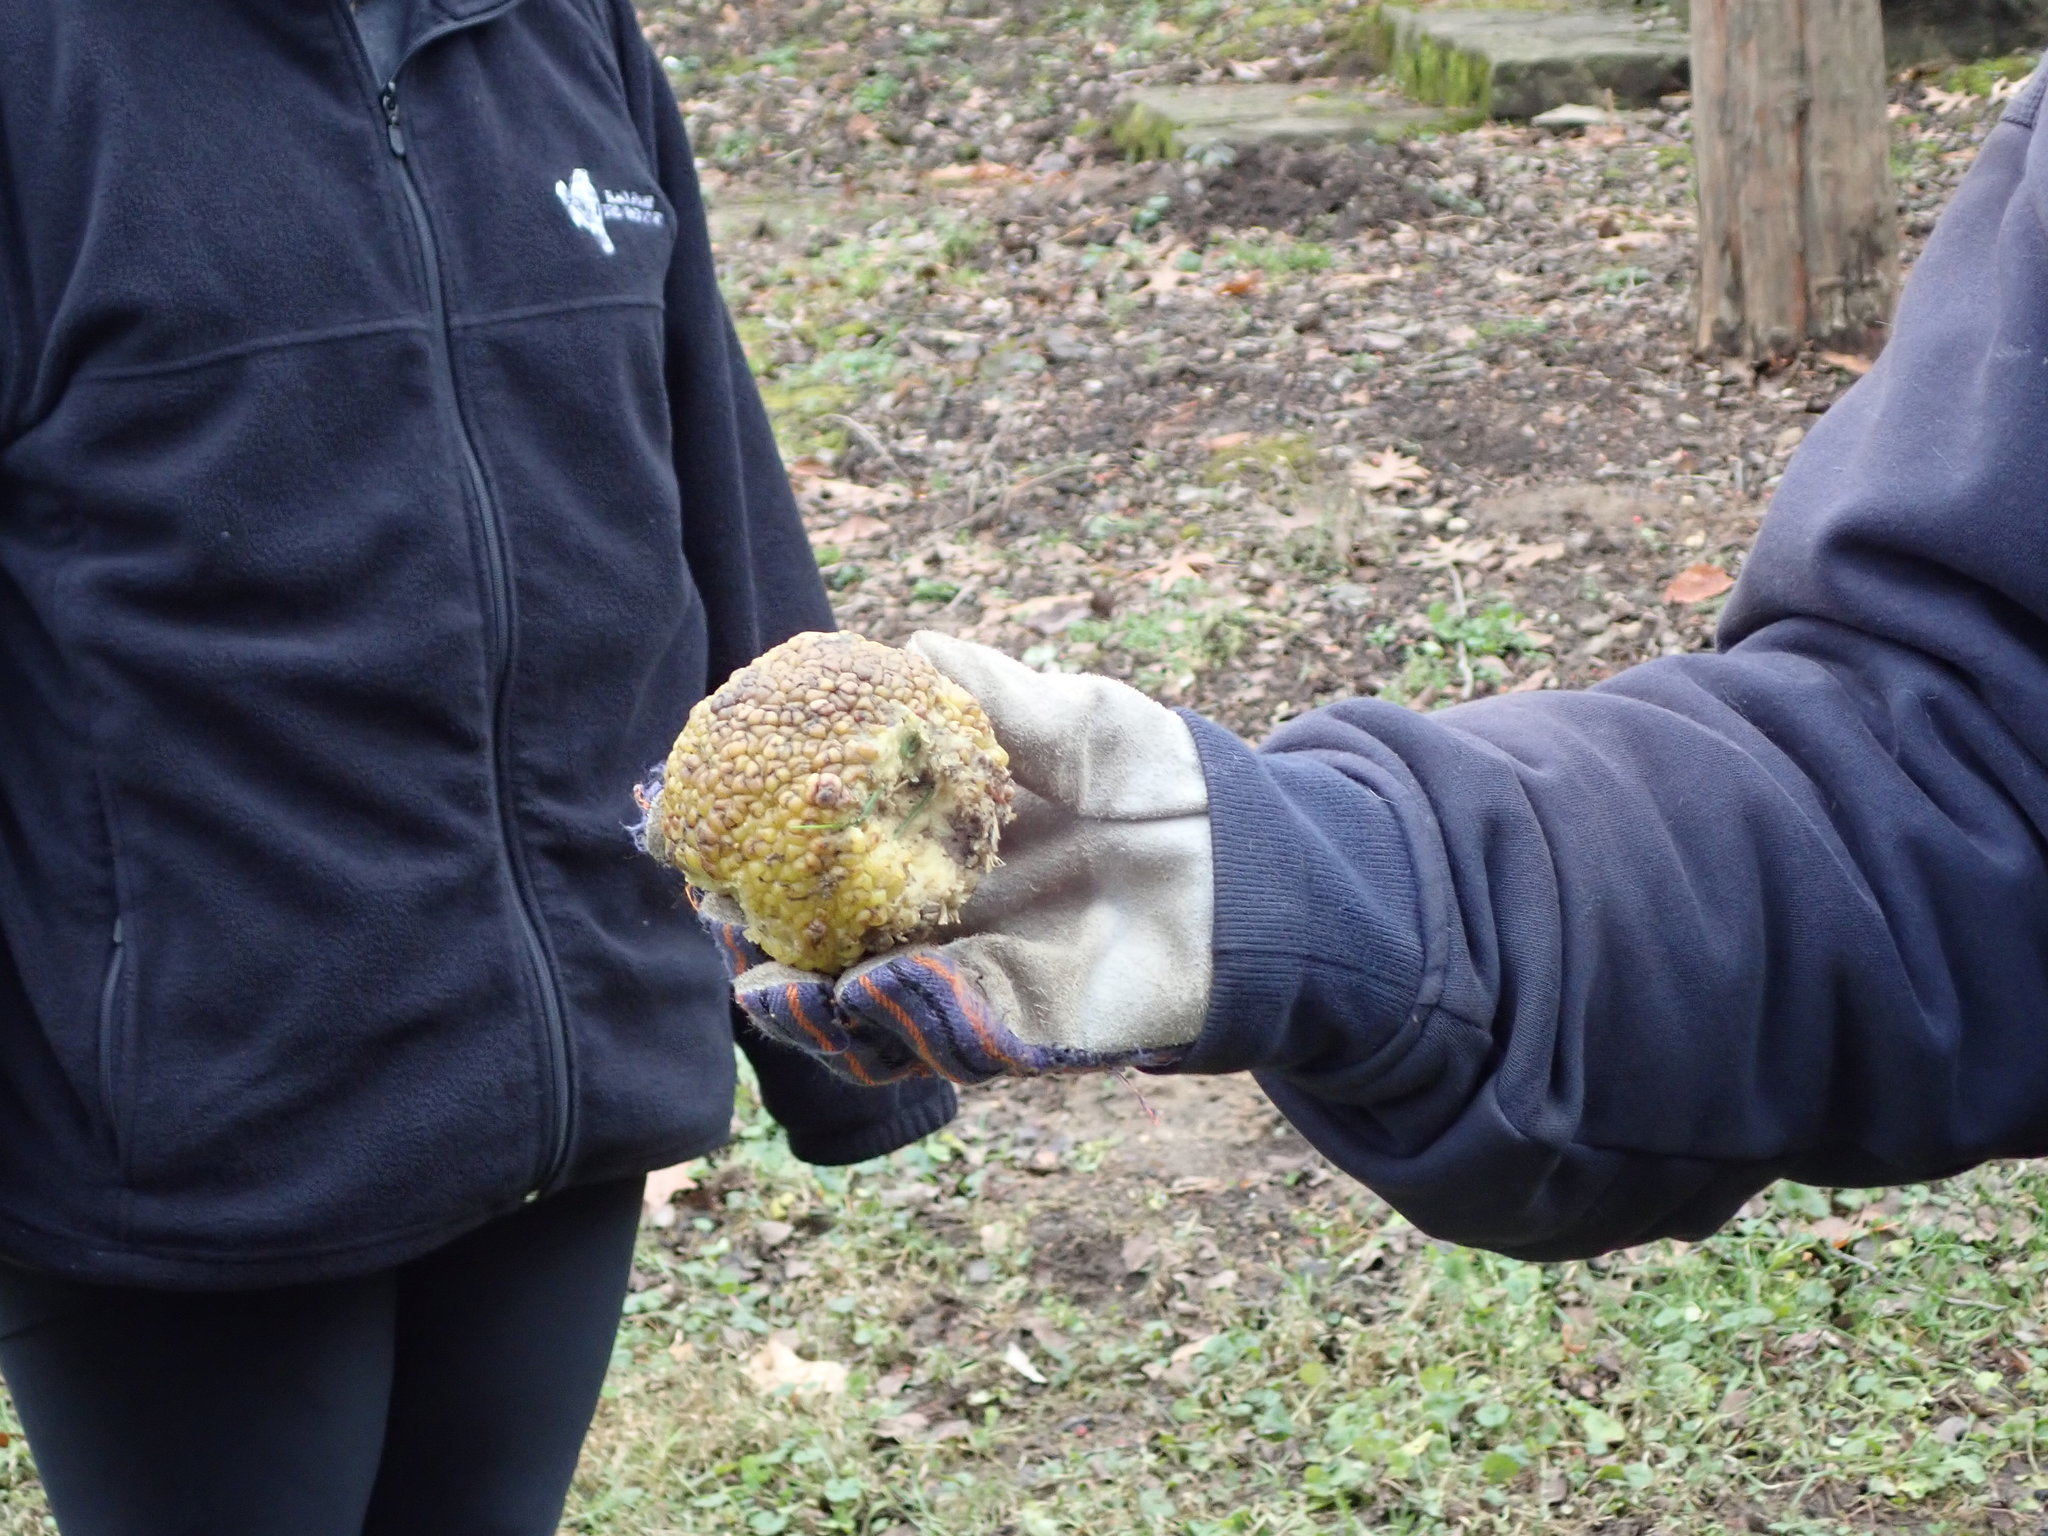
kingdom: Plantae
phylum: Tracheophyta
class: Magnoliopsida
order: Rosales
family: Moraceae
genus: Maclura
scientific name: Maclura pomifera
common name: Osage-orange
